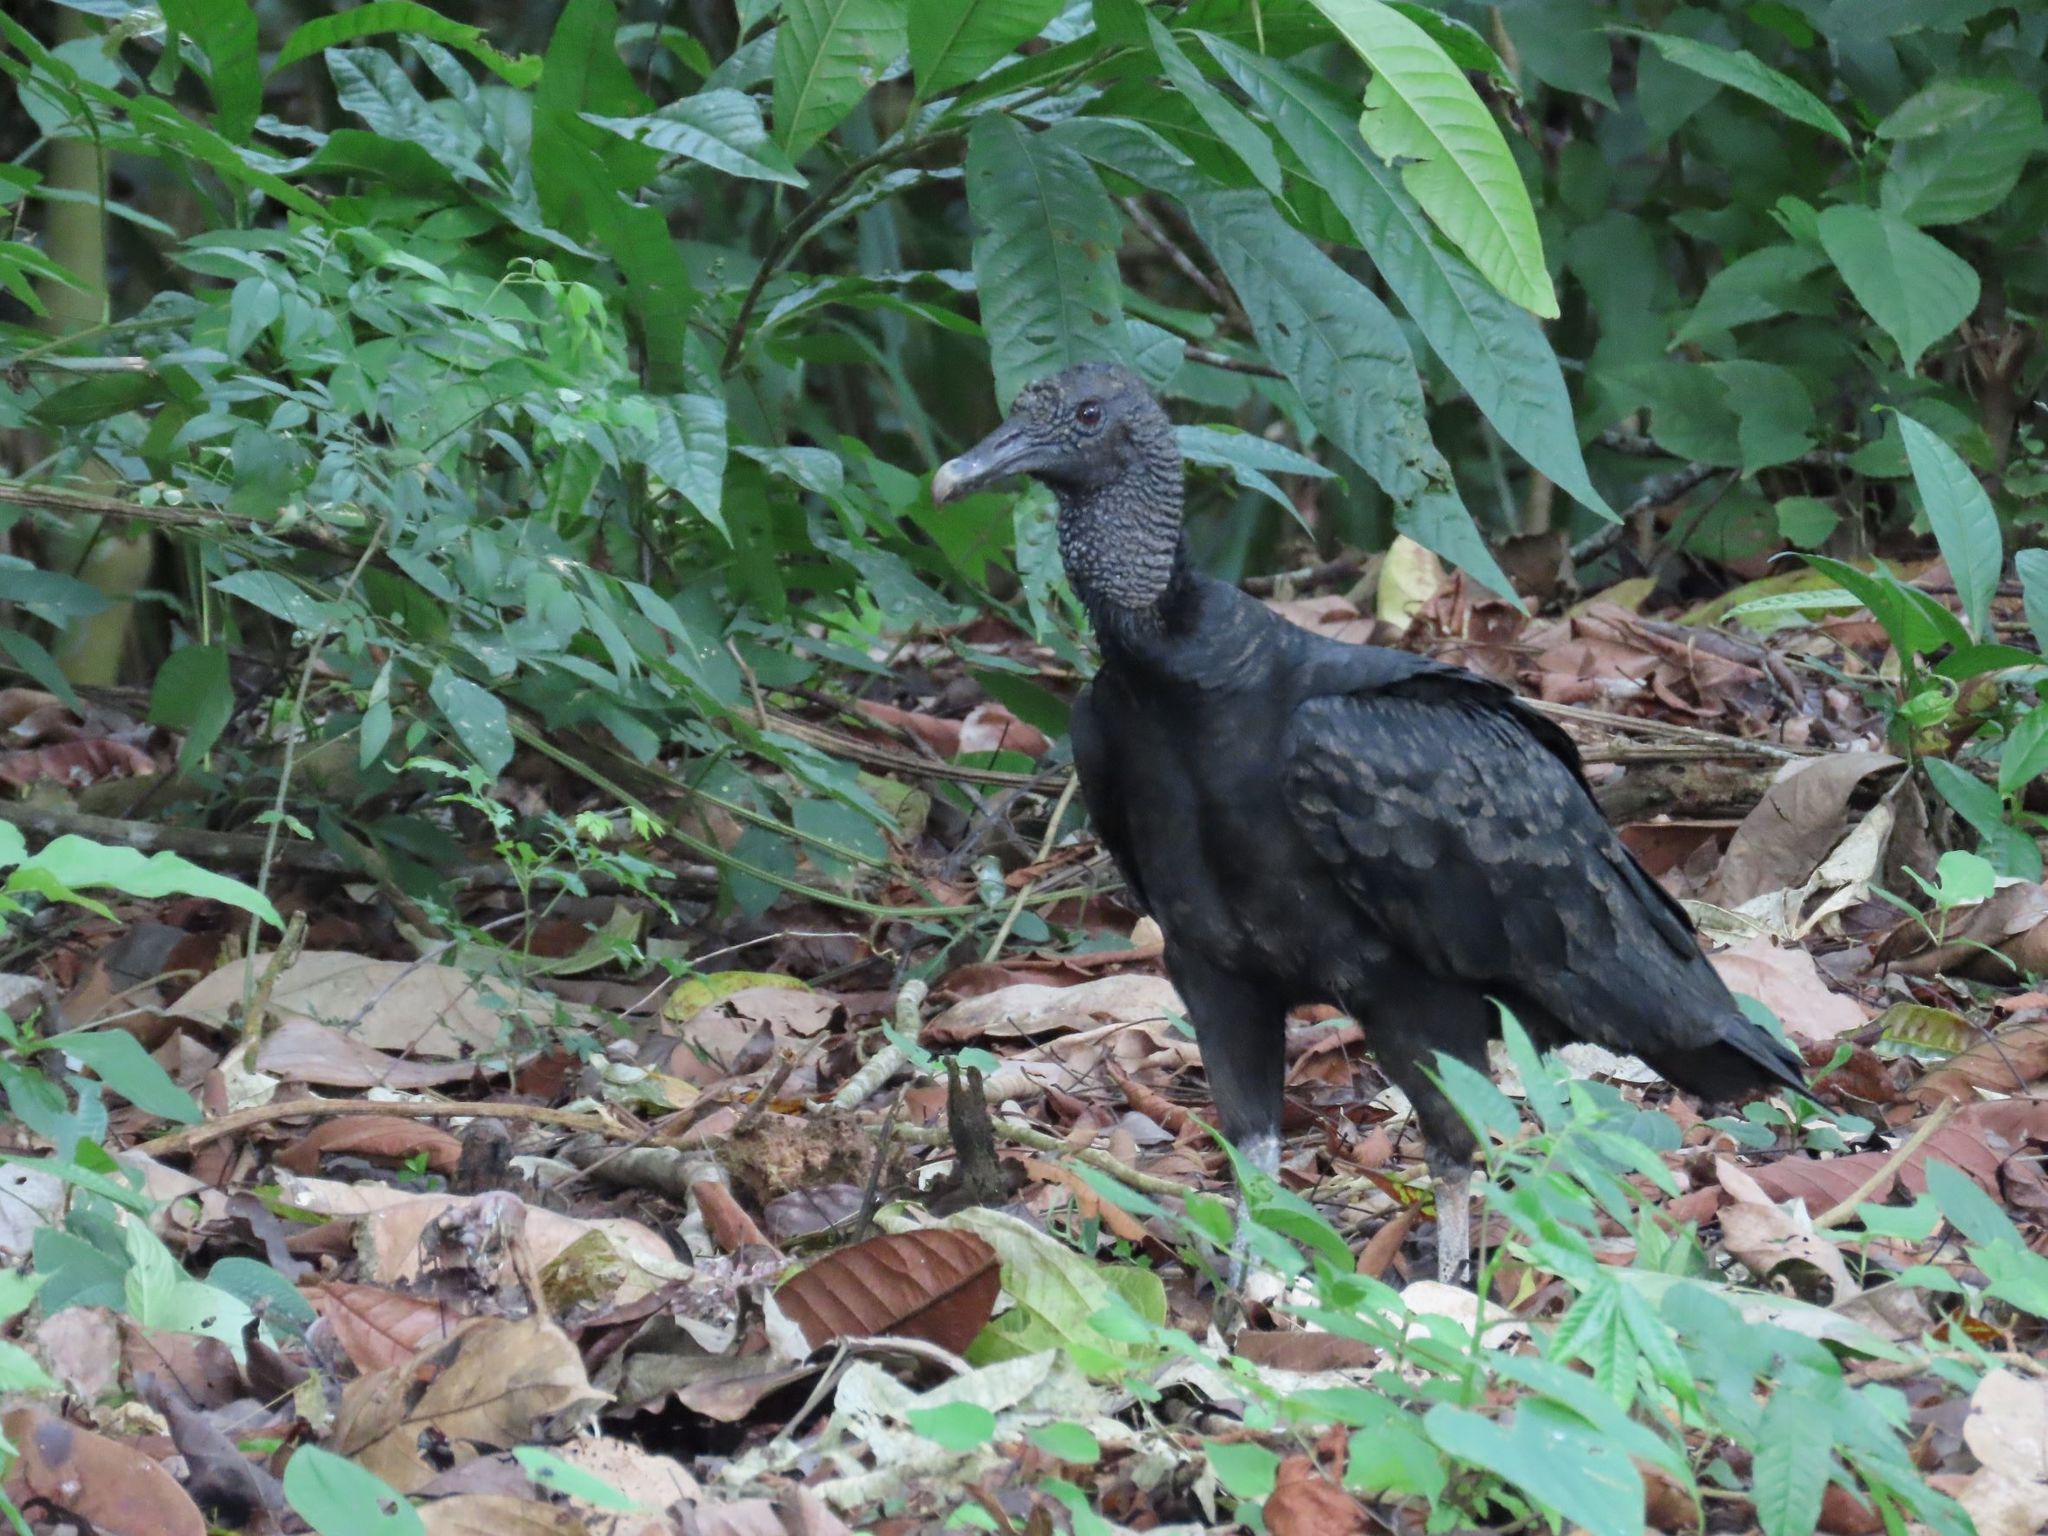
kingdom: Animalia
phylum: Chordata
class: Aves
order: Accipitriformes
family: Cathartidae
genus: Coragyps
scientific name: Coragyps atratus
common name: Black vulture
